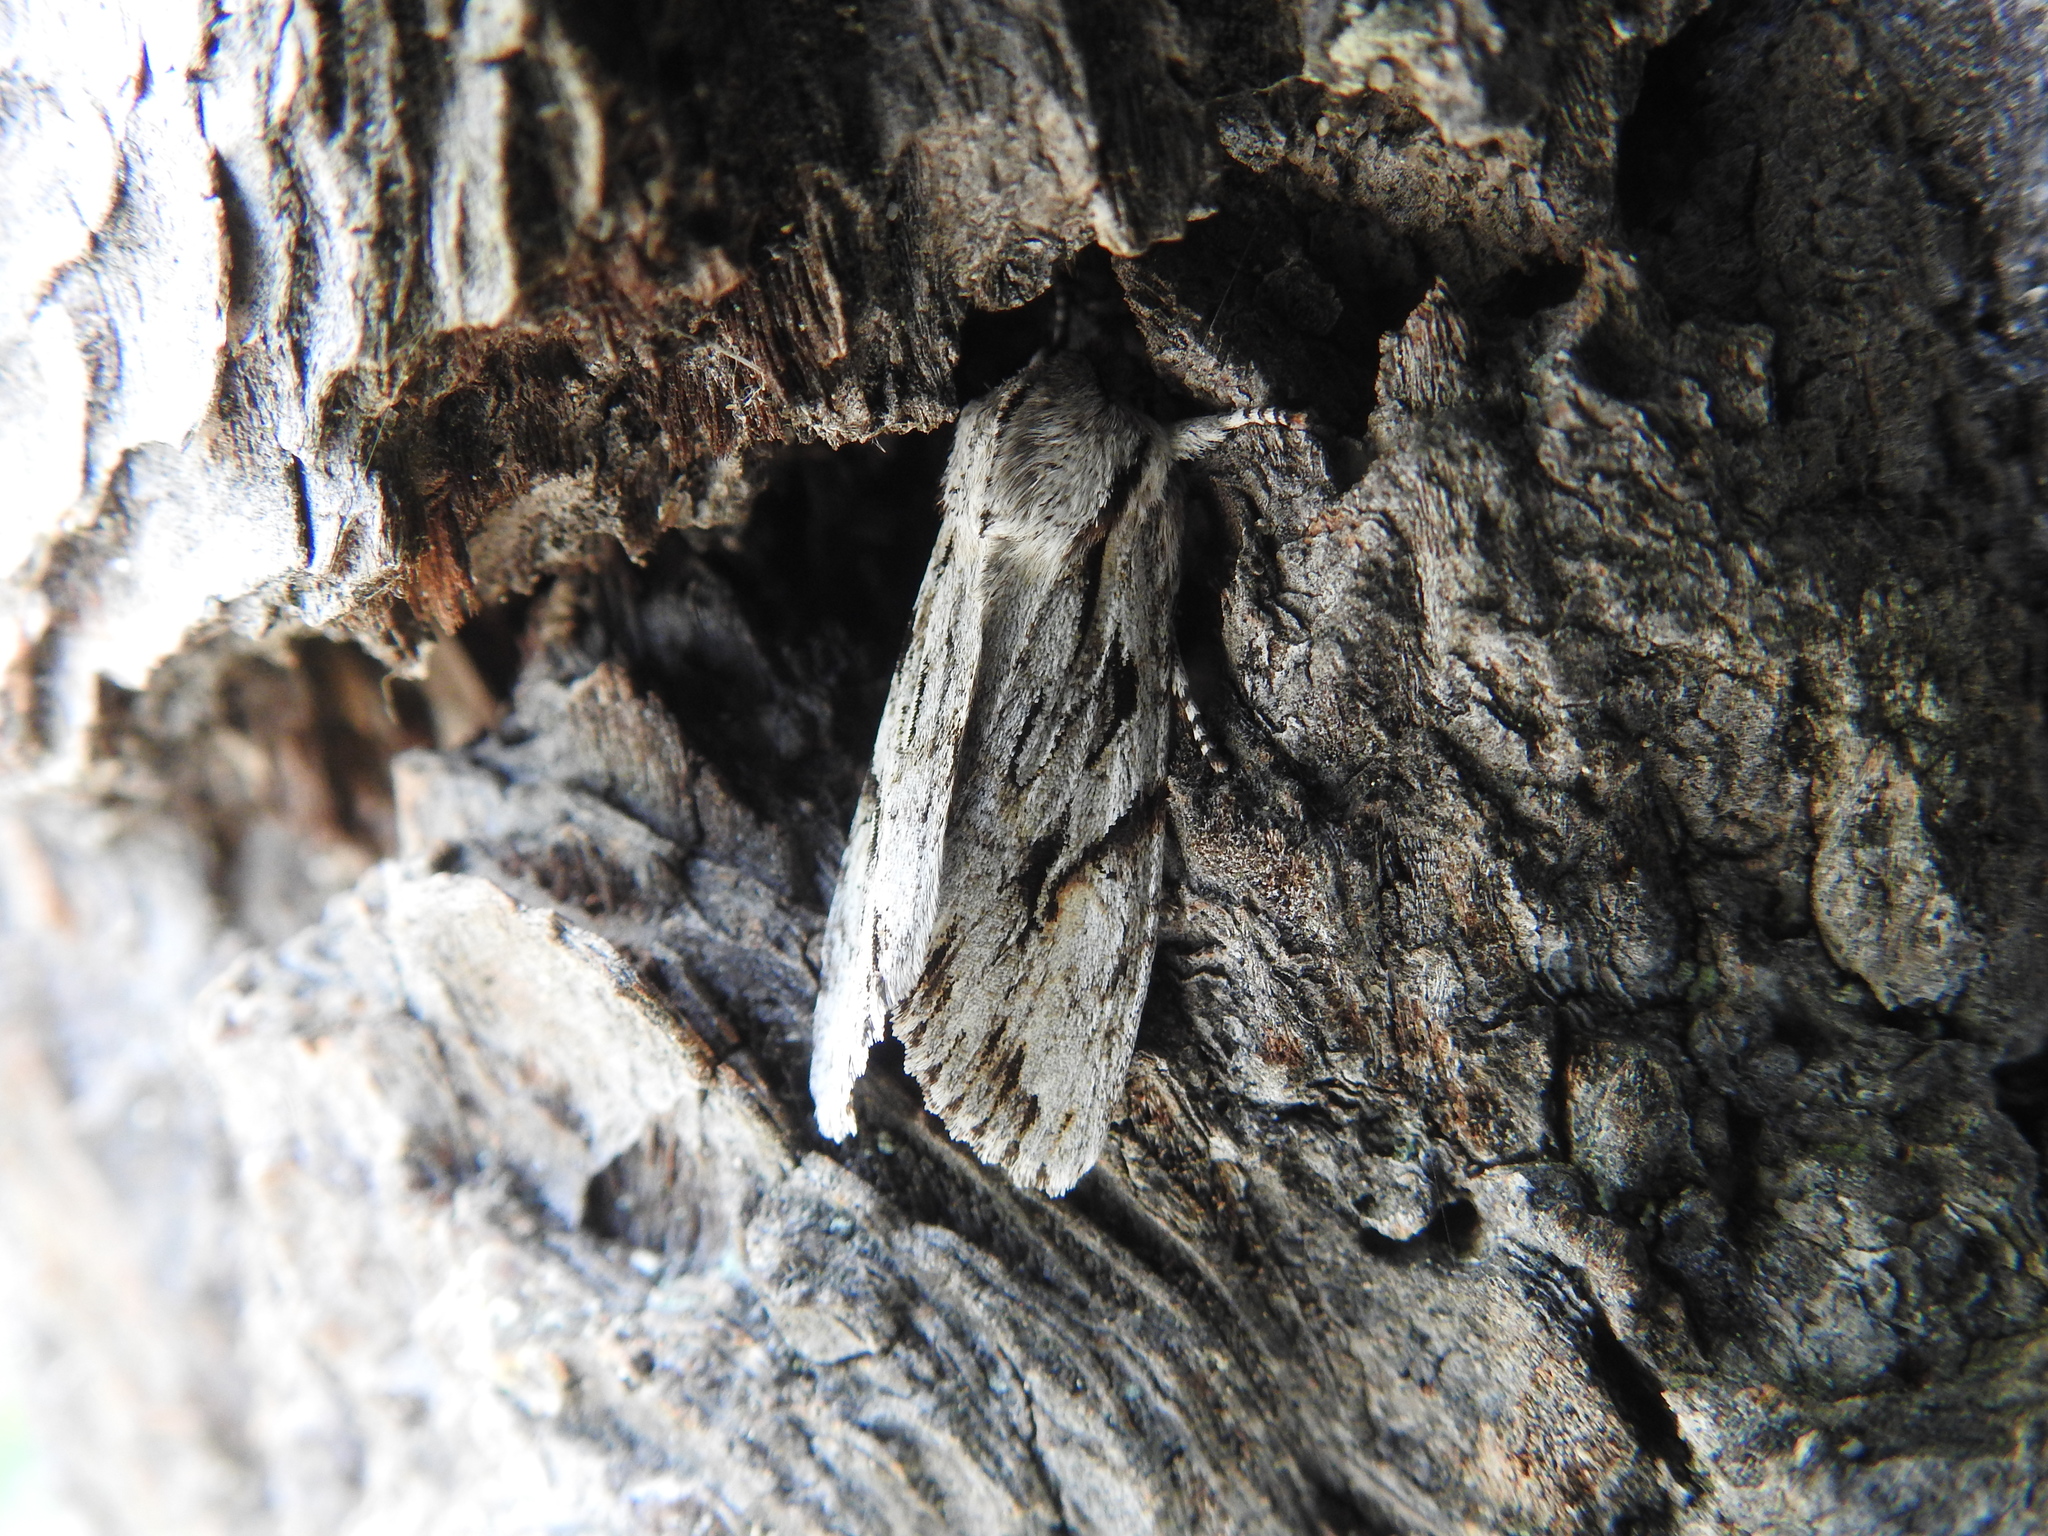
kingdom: Animalia
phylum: Arthropoda
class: Insecta
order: Lepidoptera
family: Noctuidae
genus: Egira
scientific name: Egira crucialis
